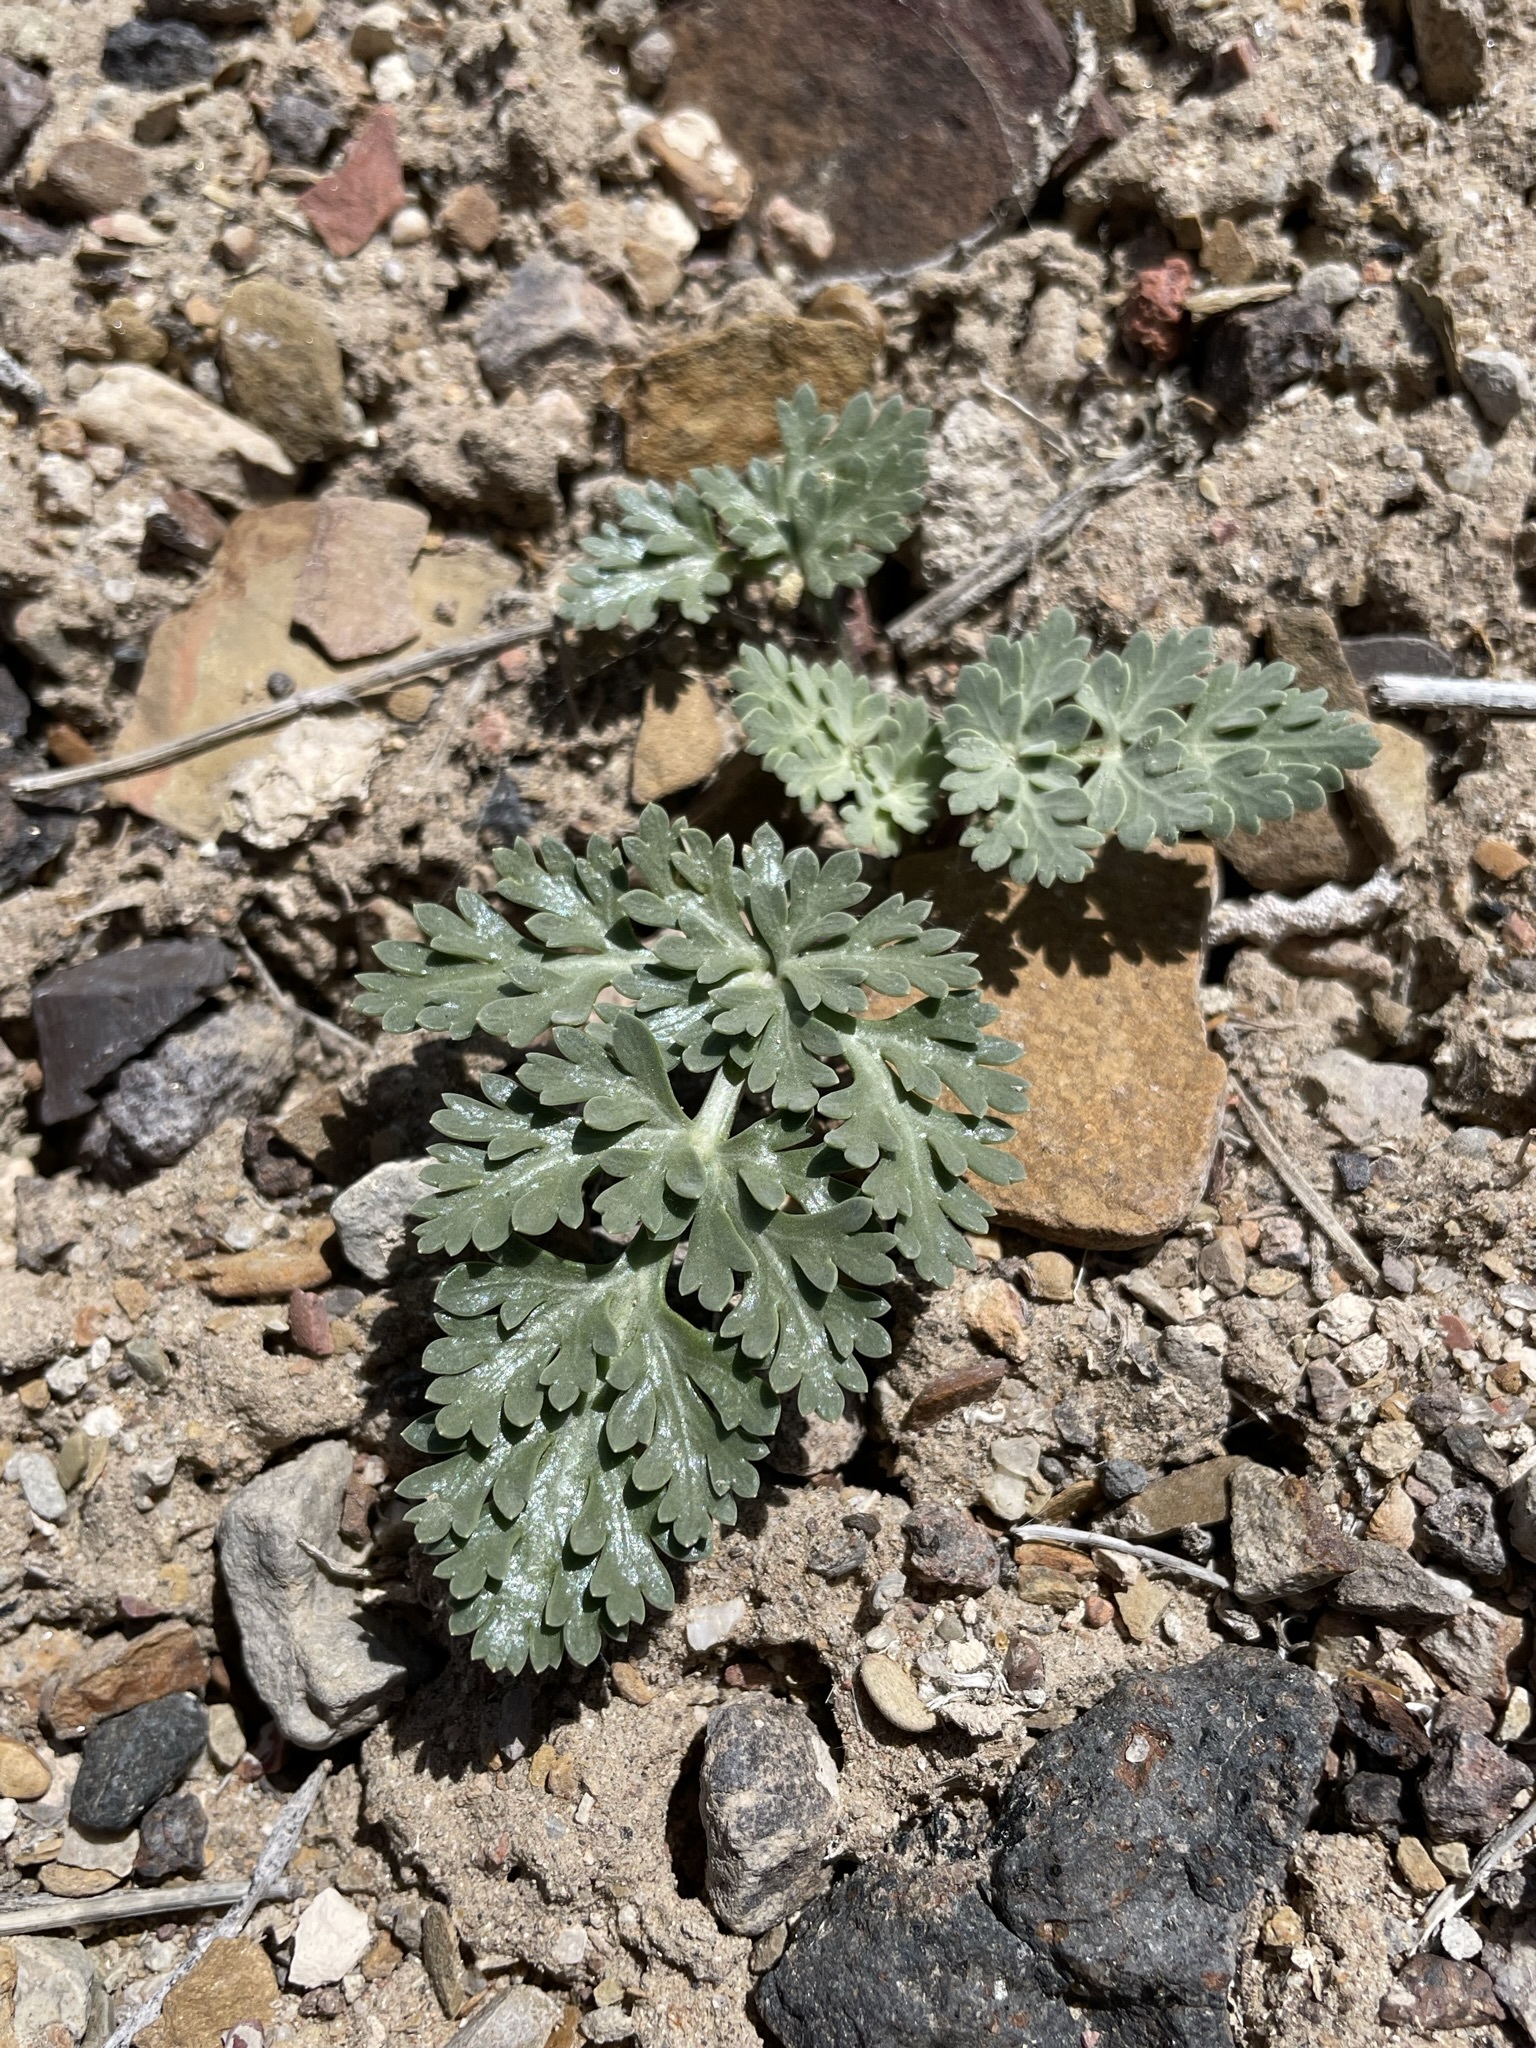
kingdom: Plantae
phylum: Tracheophyta
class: Magnoliopsida
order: Apiales
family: Apiaceae
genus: Cymopterus
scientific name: Cymopterus globosus
